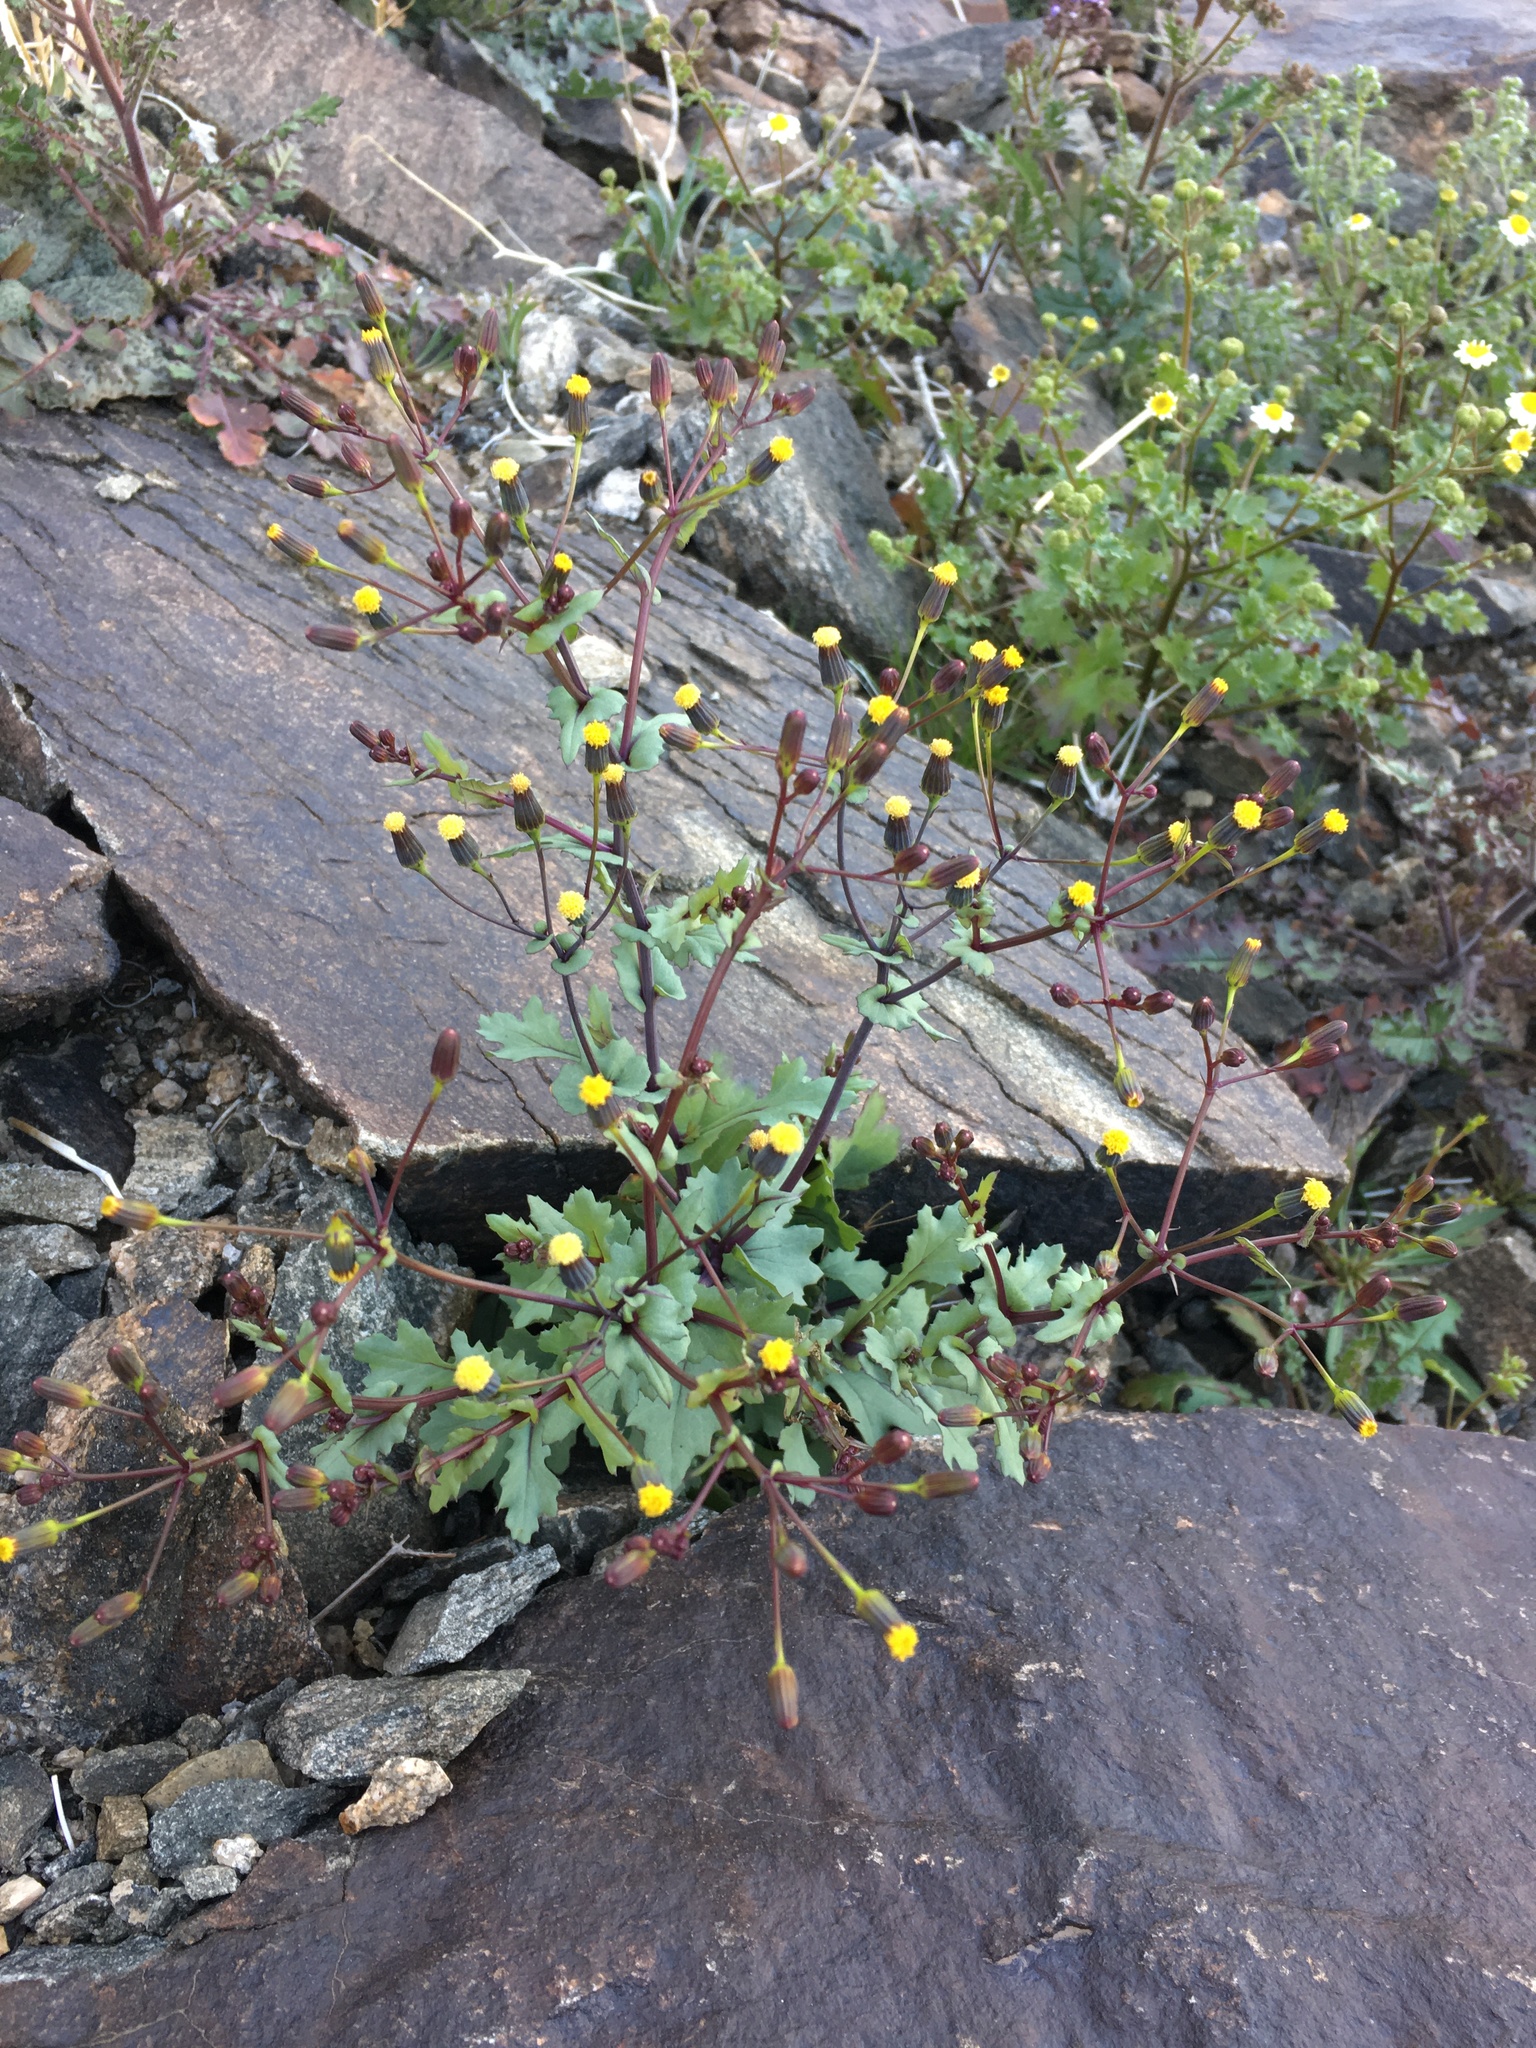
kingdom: Plantae
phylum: Tracheophyta
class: Magnoliopsida
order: Asterales
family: Asteraceae
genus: Senecio
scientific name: Senecio mohavensis
